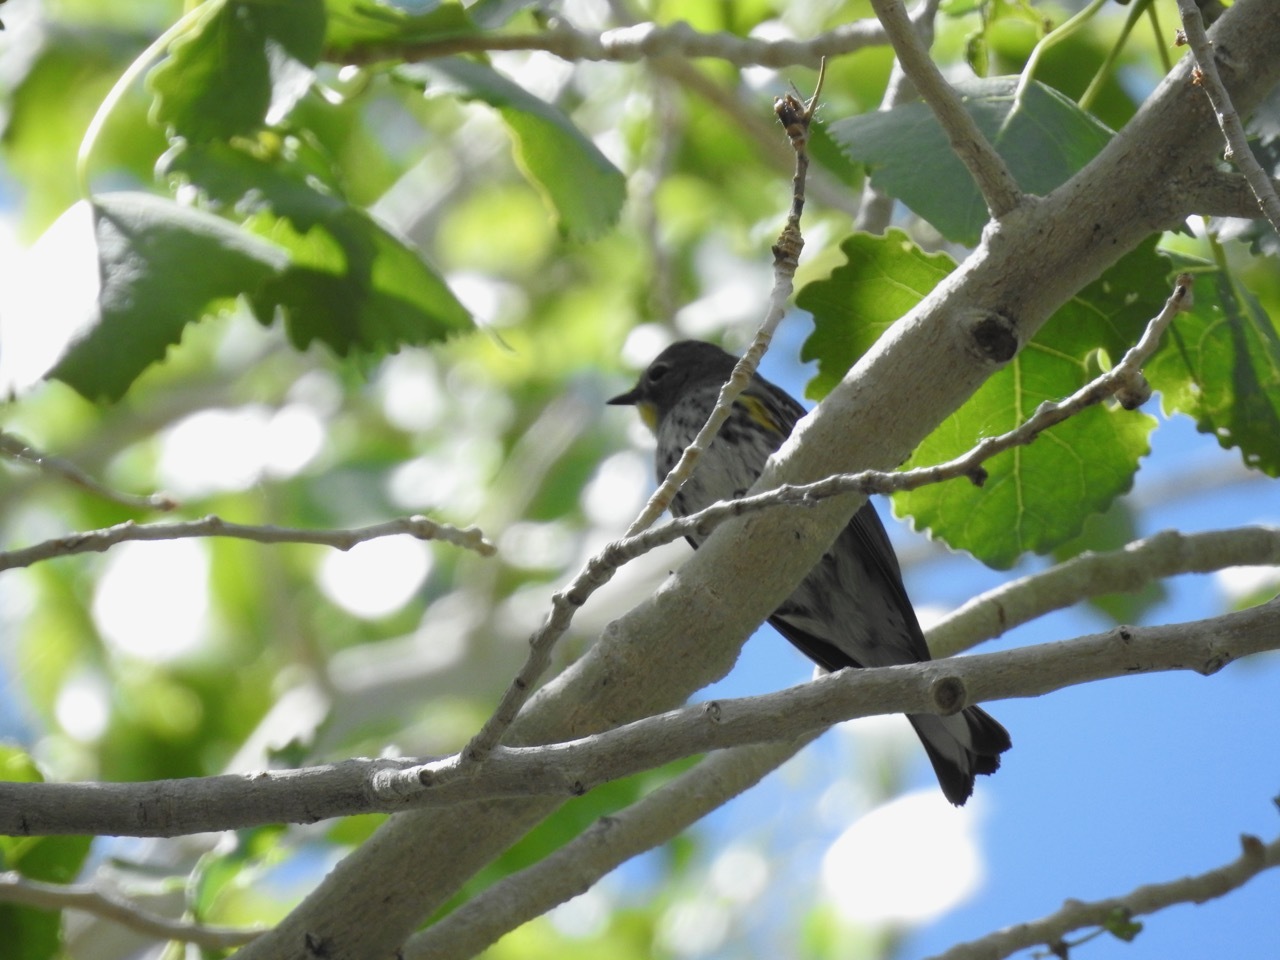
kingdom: Animalia
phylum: Chordata
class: Aves
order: Passeriformes
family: Parulidae
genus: Setophaga
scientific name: Setophaga auduboni
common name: Audubon's warbler
